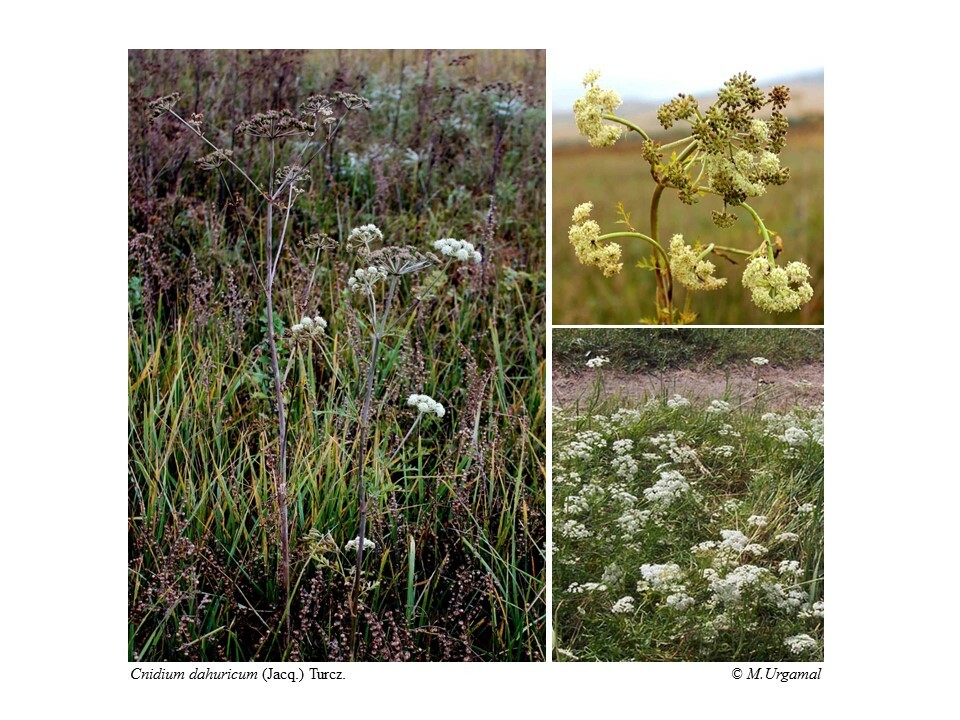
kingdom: Plantae
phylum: Tracheophyta
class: Magnoliopsida
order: Apiales
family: Apiaceae
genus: Cnidium
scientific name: Cnidium dauricum
